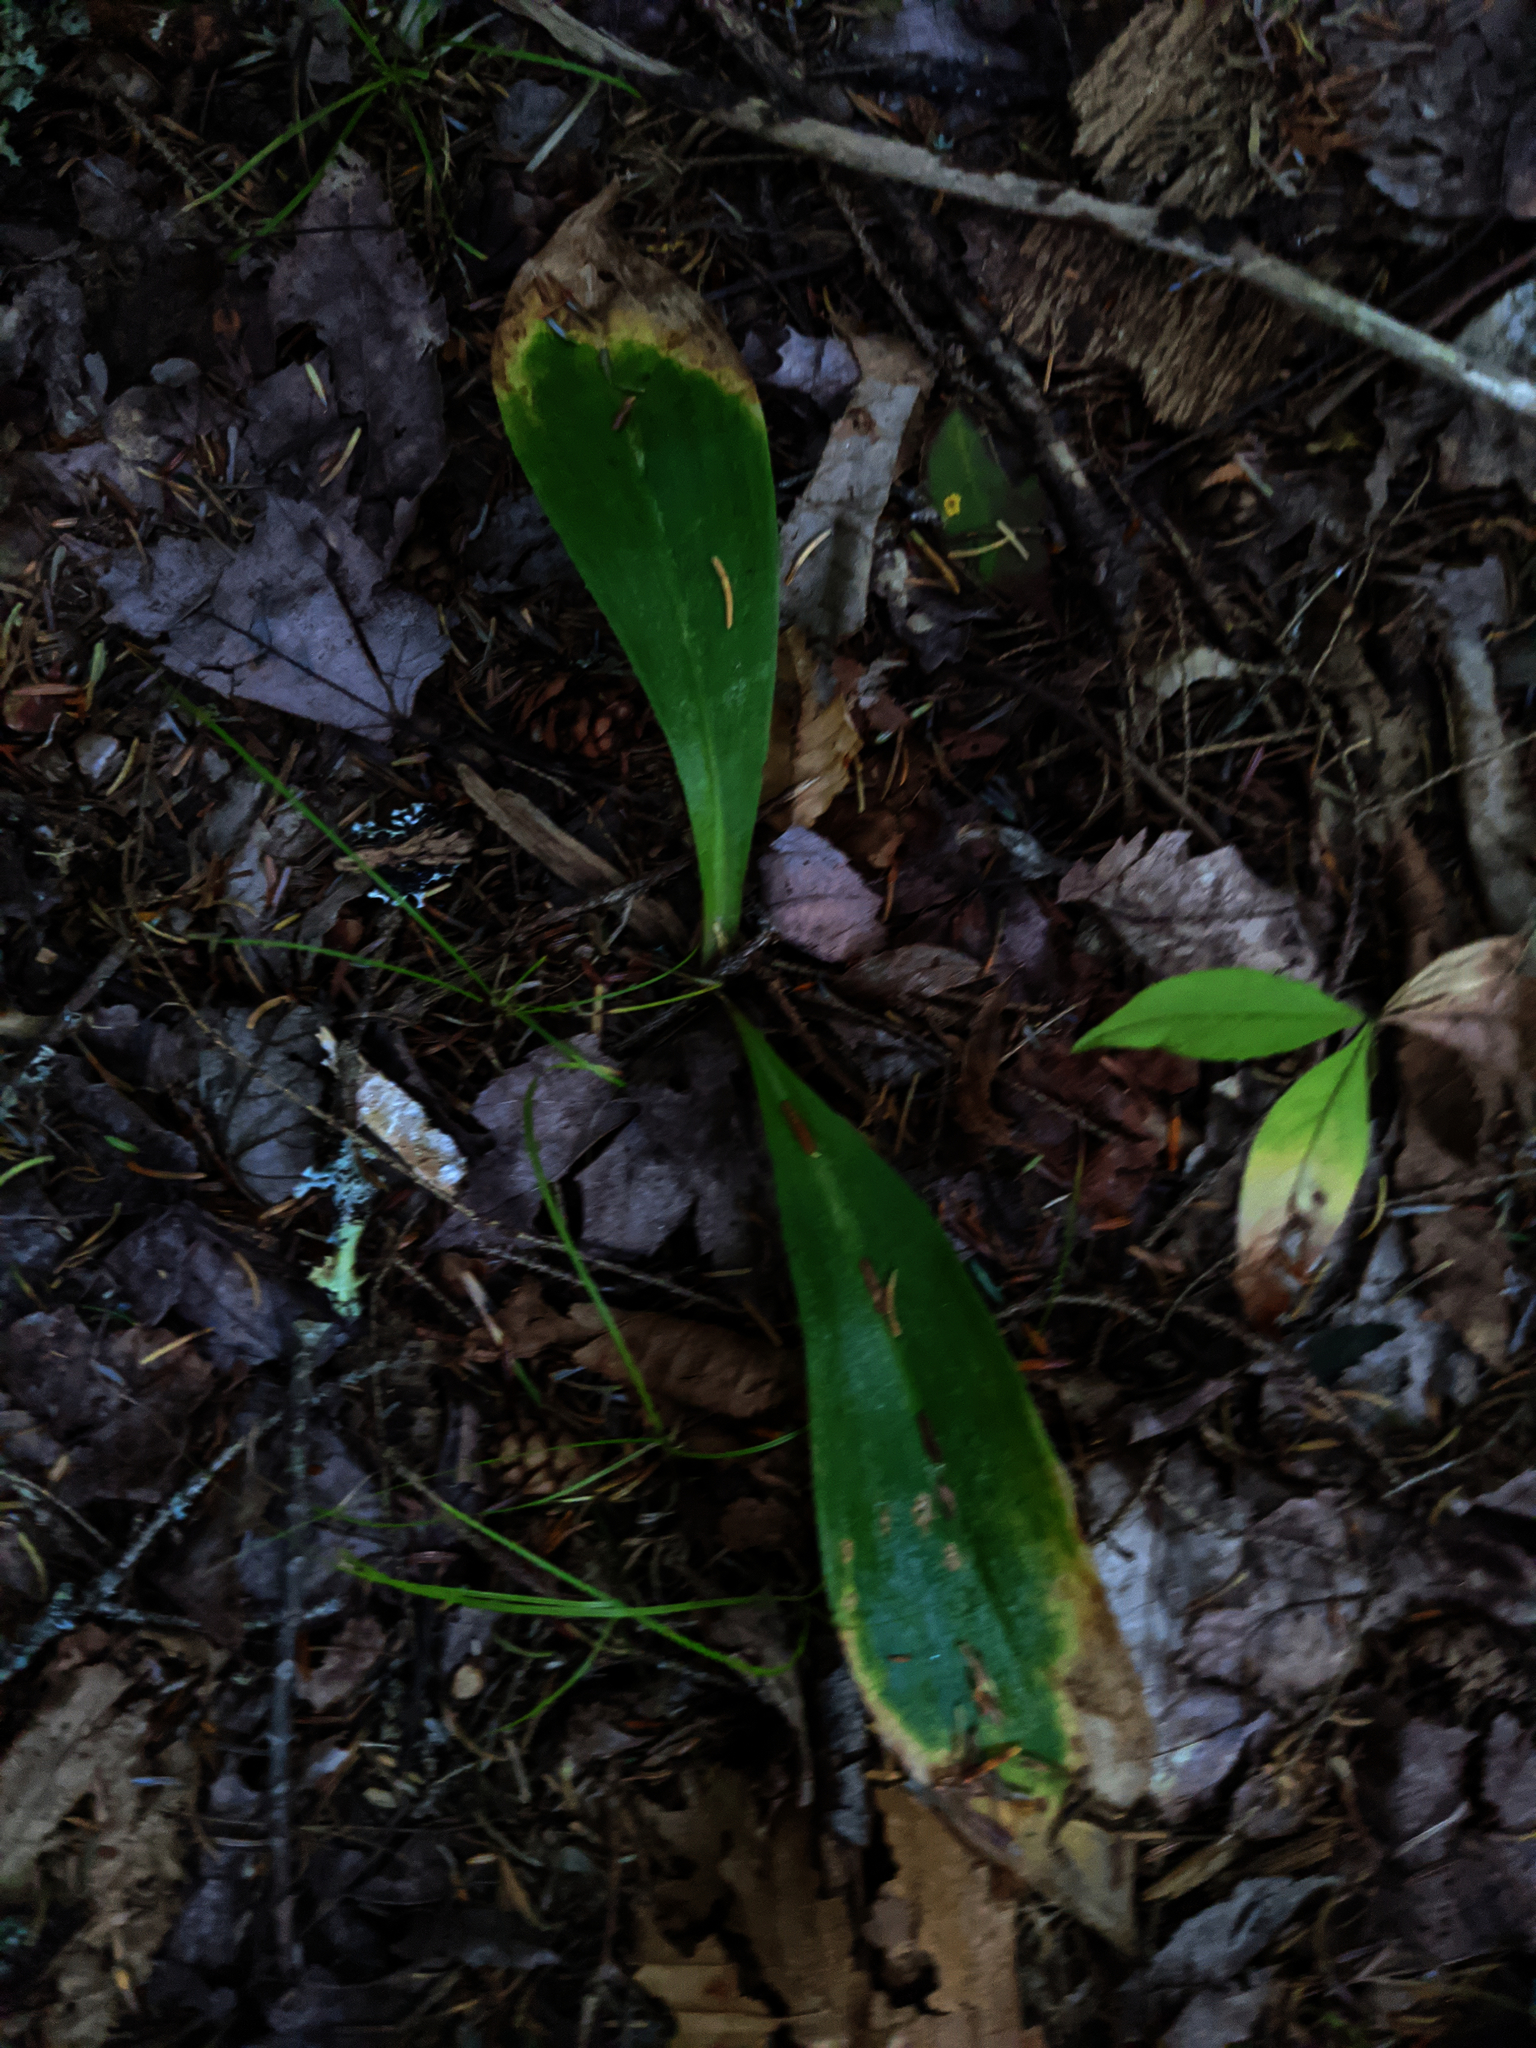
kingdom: Plantae
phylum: Tracheophyta
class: Liliopsida
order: Liliales
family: Liliaceae
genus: Clintonia
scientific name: Clintonia borealis
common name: Yellow clintonia
